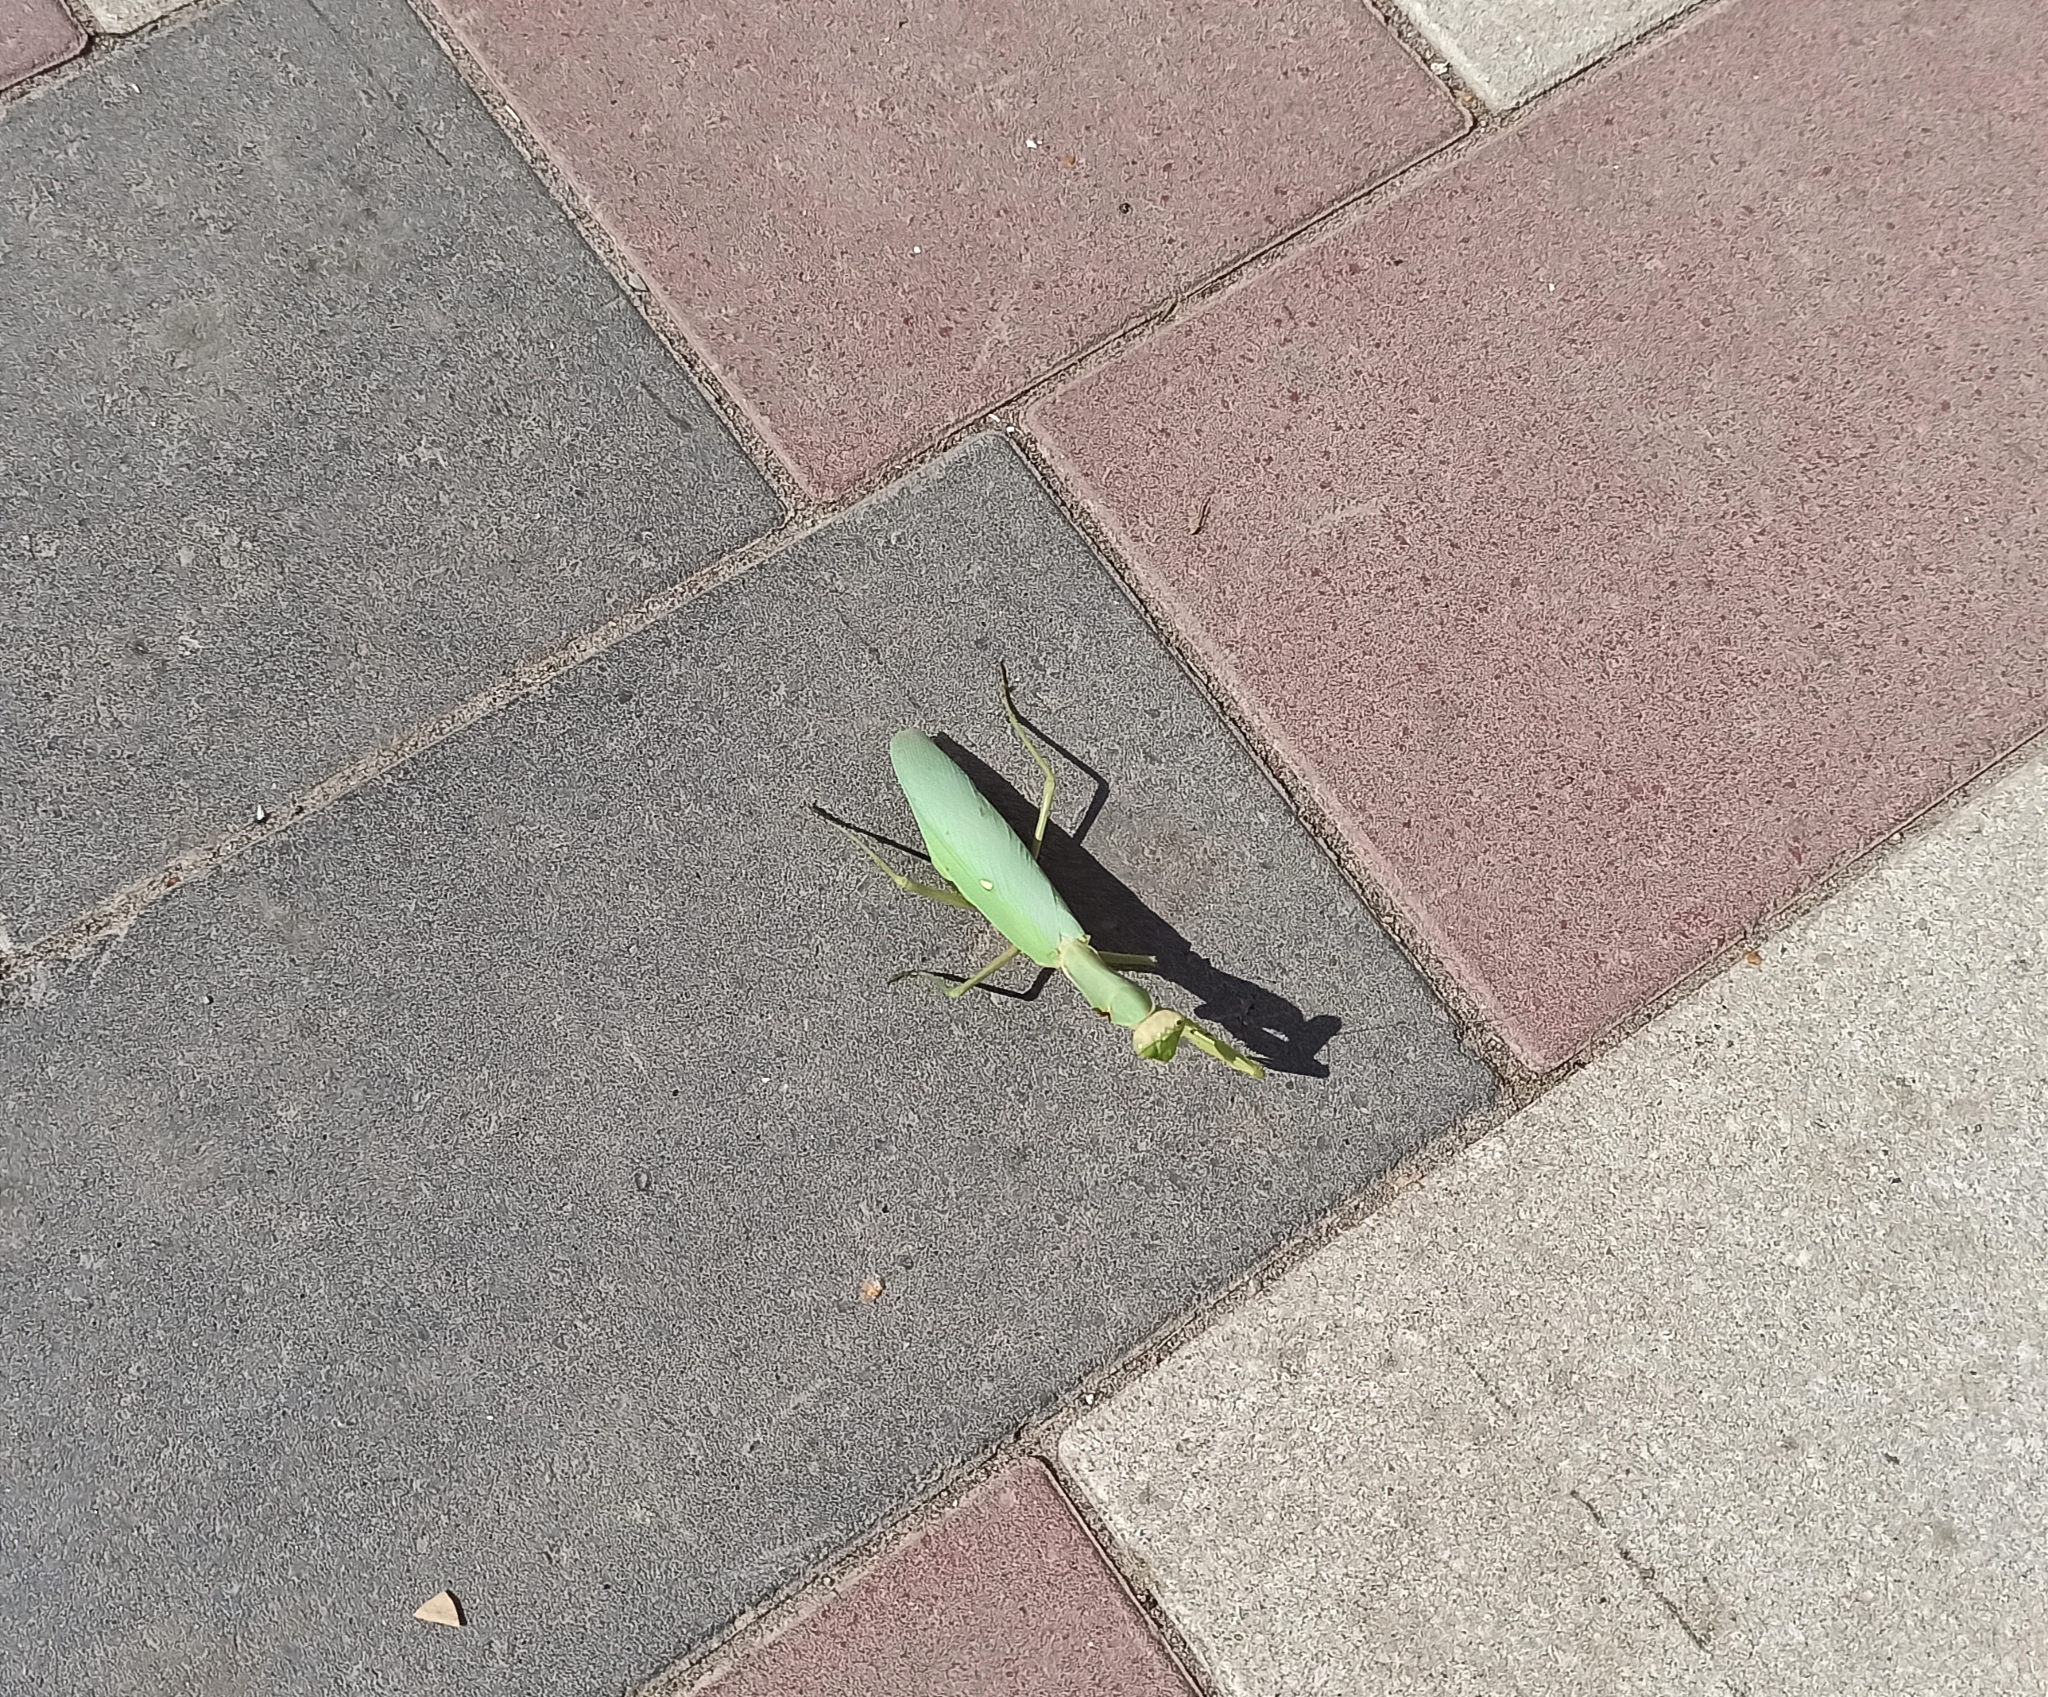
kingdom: Animalia
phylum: Arthropoda
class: Insecta
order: Mantodea
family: Mantidae
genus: Hierodula
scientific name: Hierodula transcaucasica
